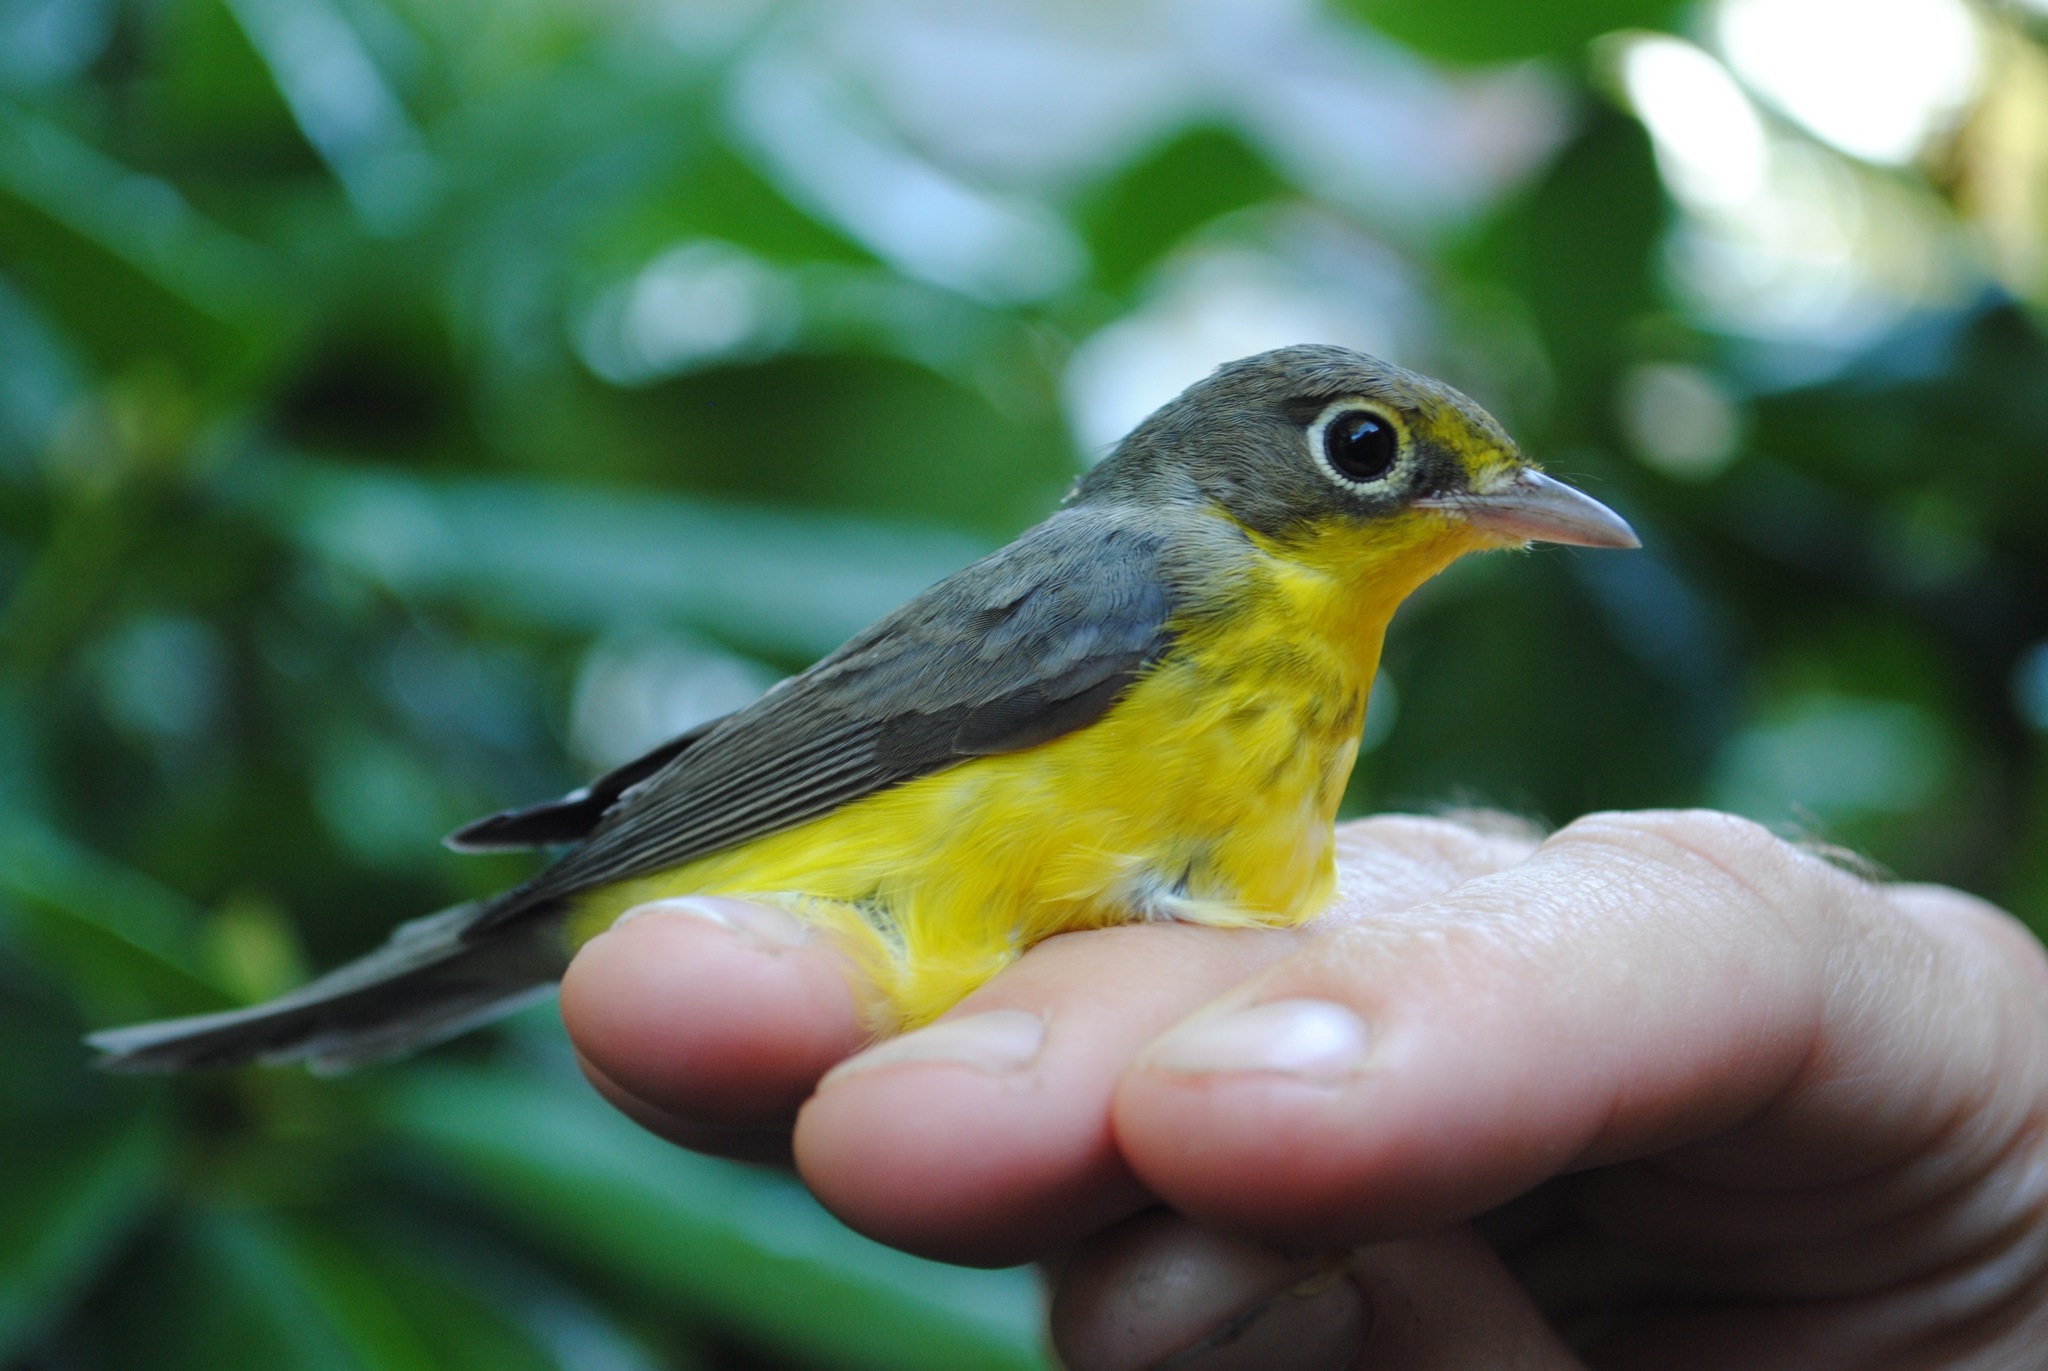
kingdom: Animalia
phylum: Chordata
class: Aves
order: Passeriformes
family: Parulidae
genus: Cardellina
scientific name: Cardellina canadensis
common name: Canada warbler
